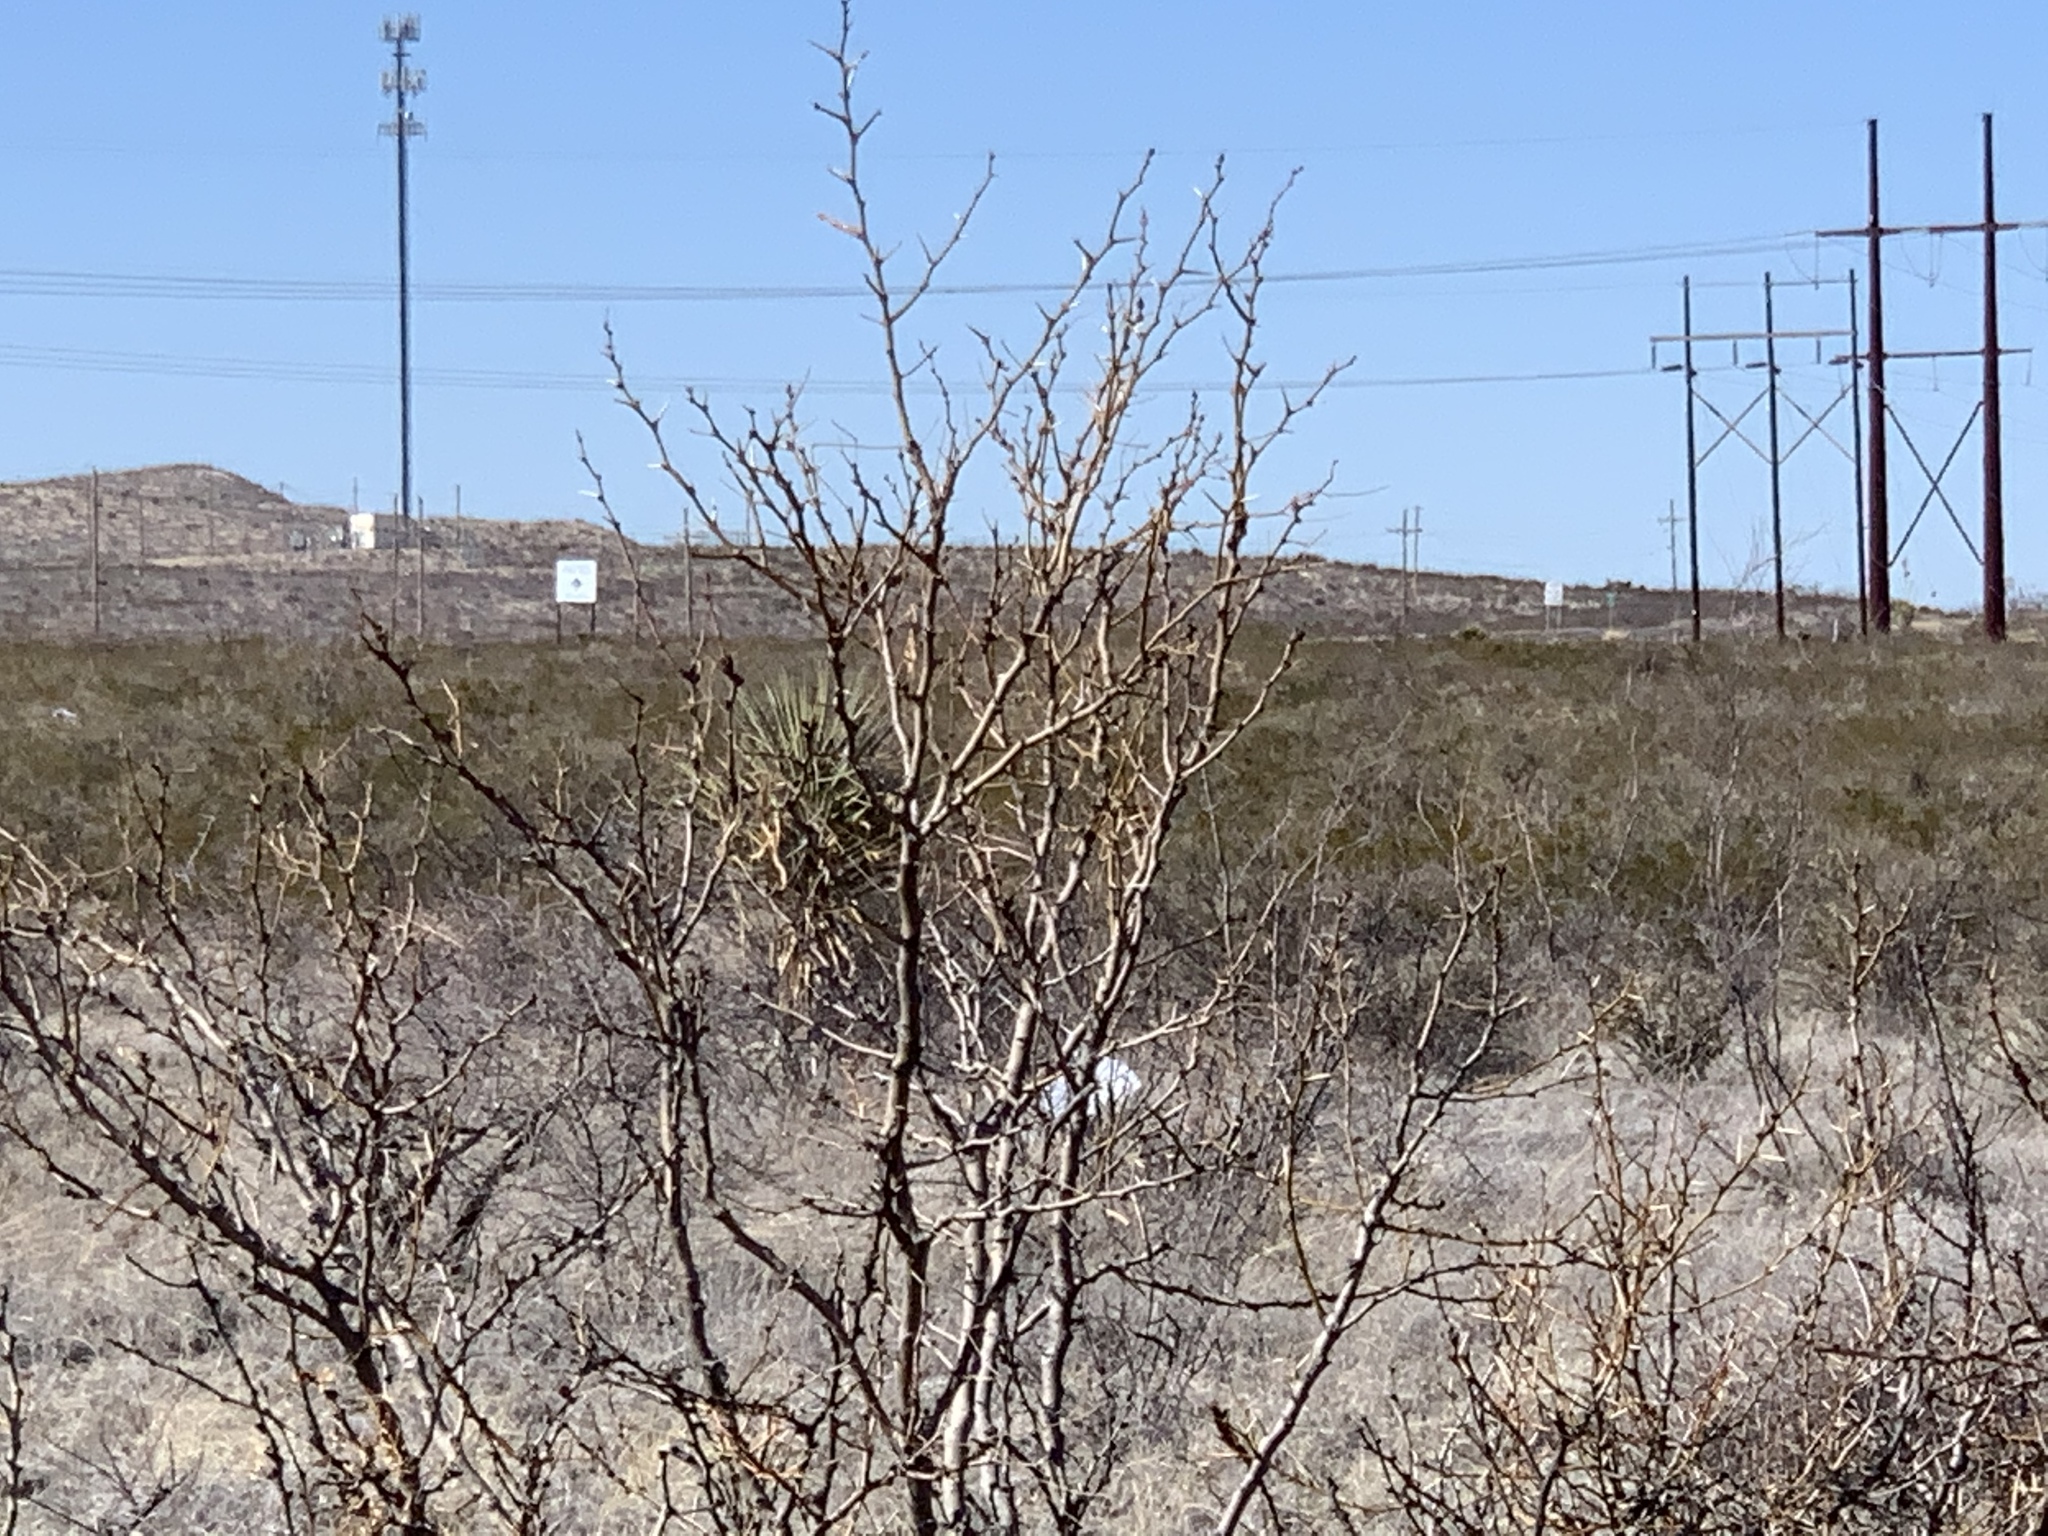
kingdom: Plantae
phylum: Tracheophyta
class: Magnoliopsida
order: Fabales
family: Fabaceae
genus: Prosopis
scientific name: Prosopis glandulosa
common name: Honey mesquite
